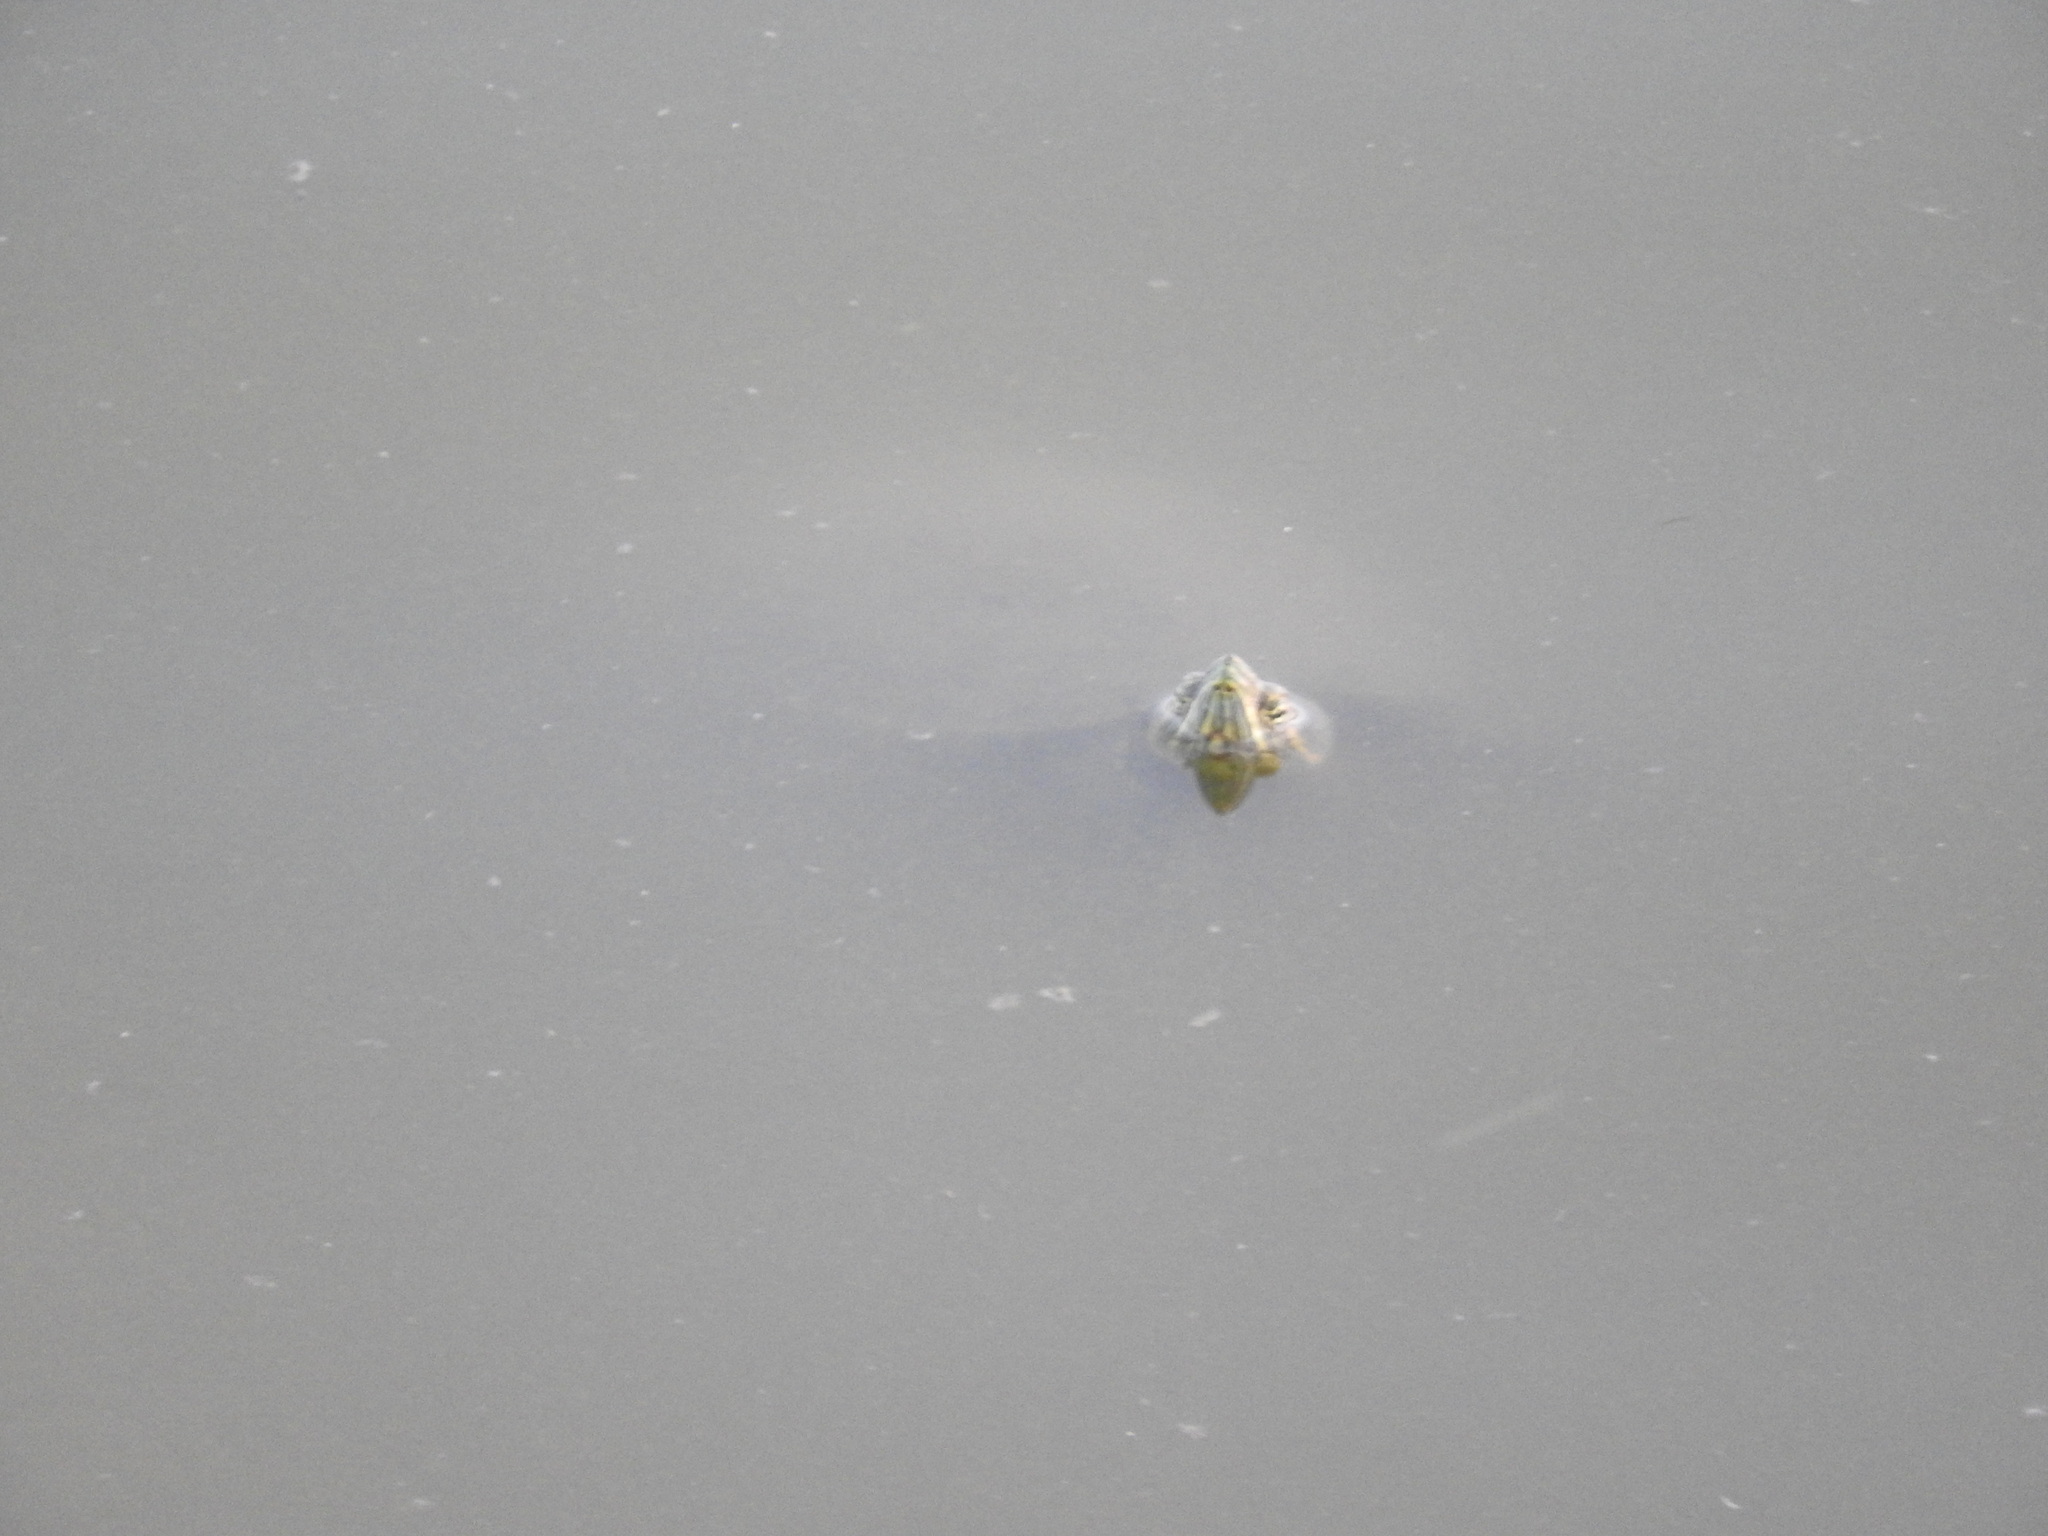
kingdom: Animalia
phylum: Chordata
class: Testudines
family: Emydidae
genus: Trachemys
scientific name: Trachemys venusta
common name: Mesoamerican slider
